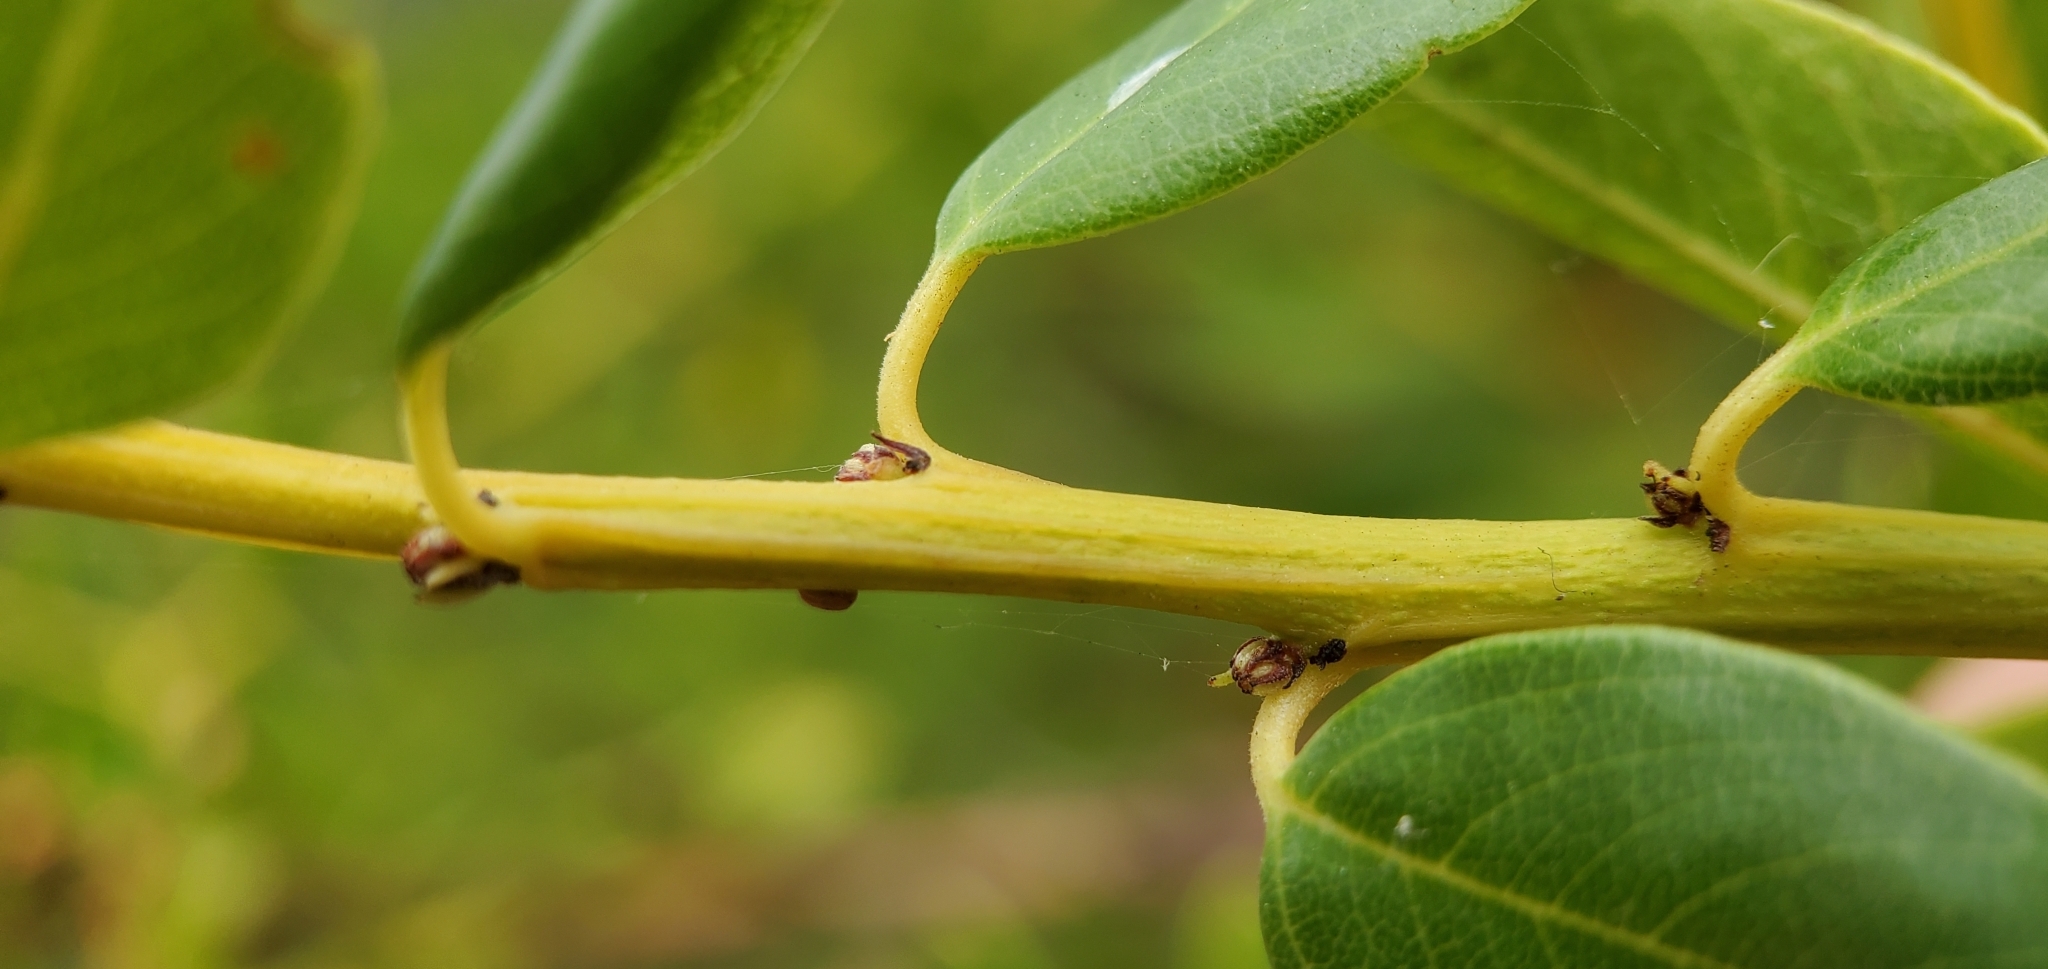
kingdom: Plantae
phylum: Tracheophyta
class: Magnoliopsida
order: Rosales
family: Rhamnaceae
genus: Ceanothus
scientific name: Ceanothus spinosus
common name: Greenbark whitethorn
